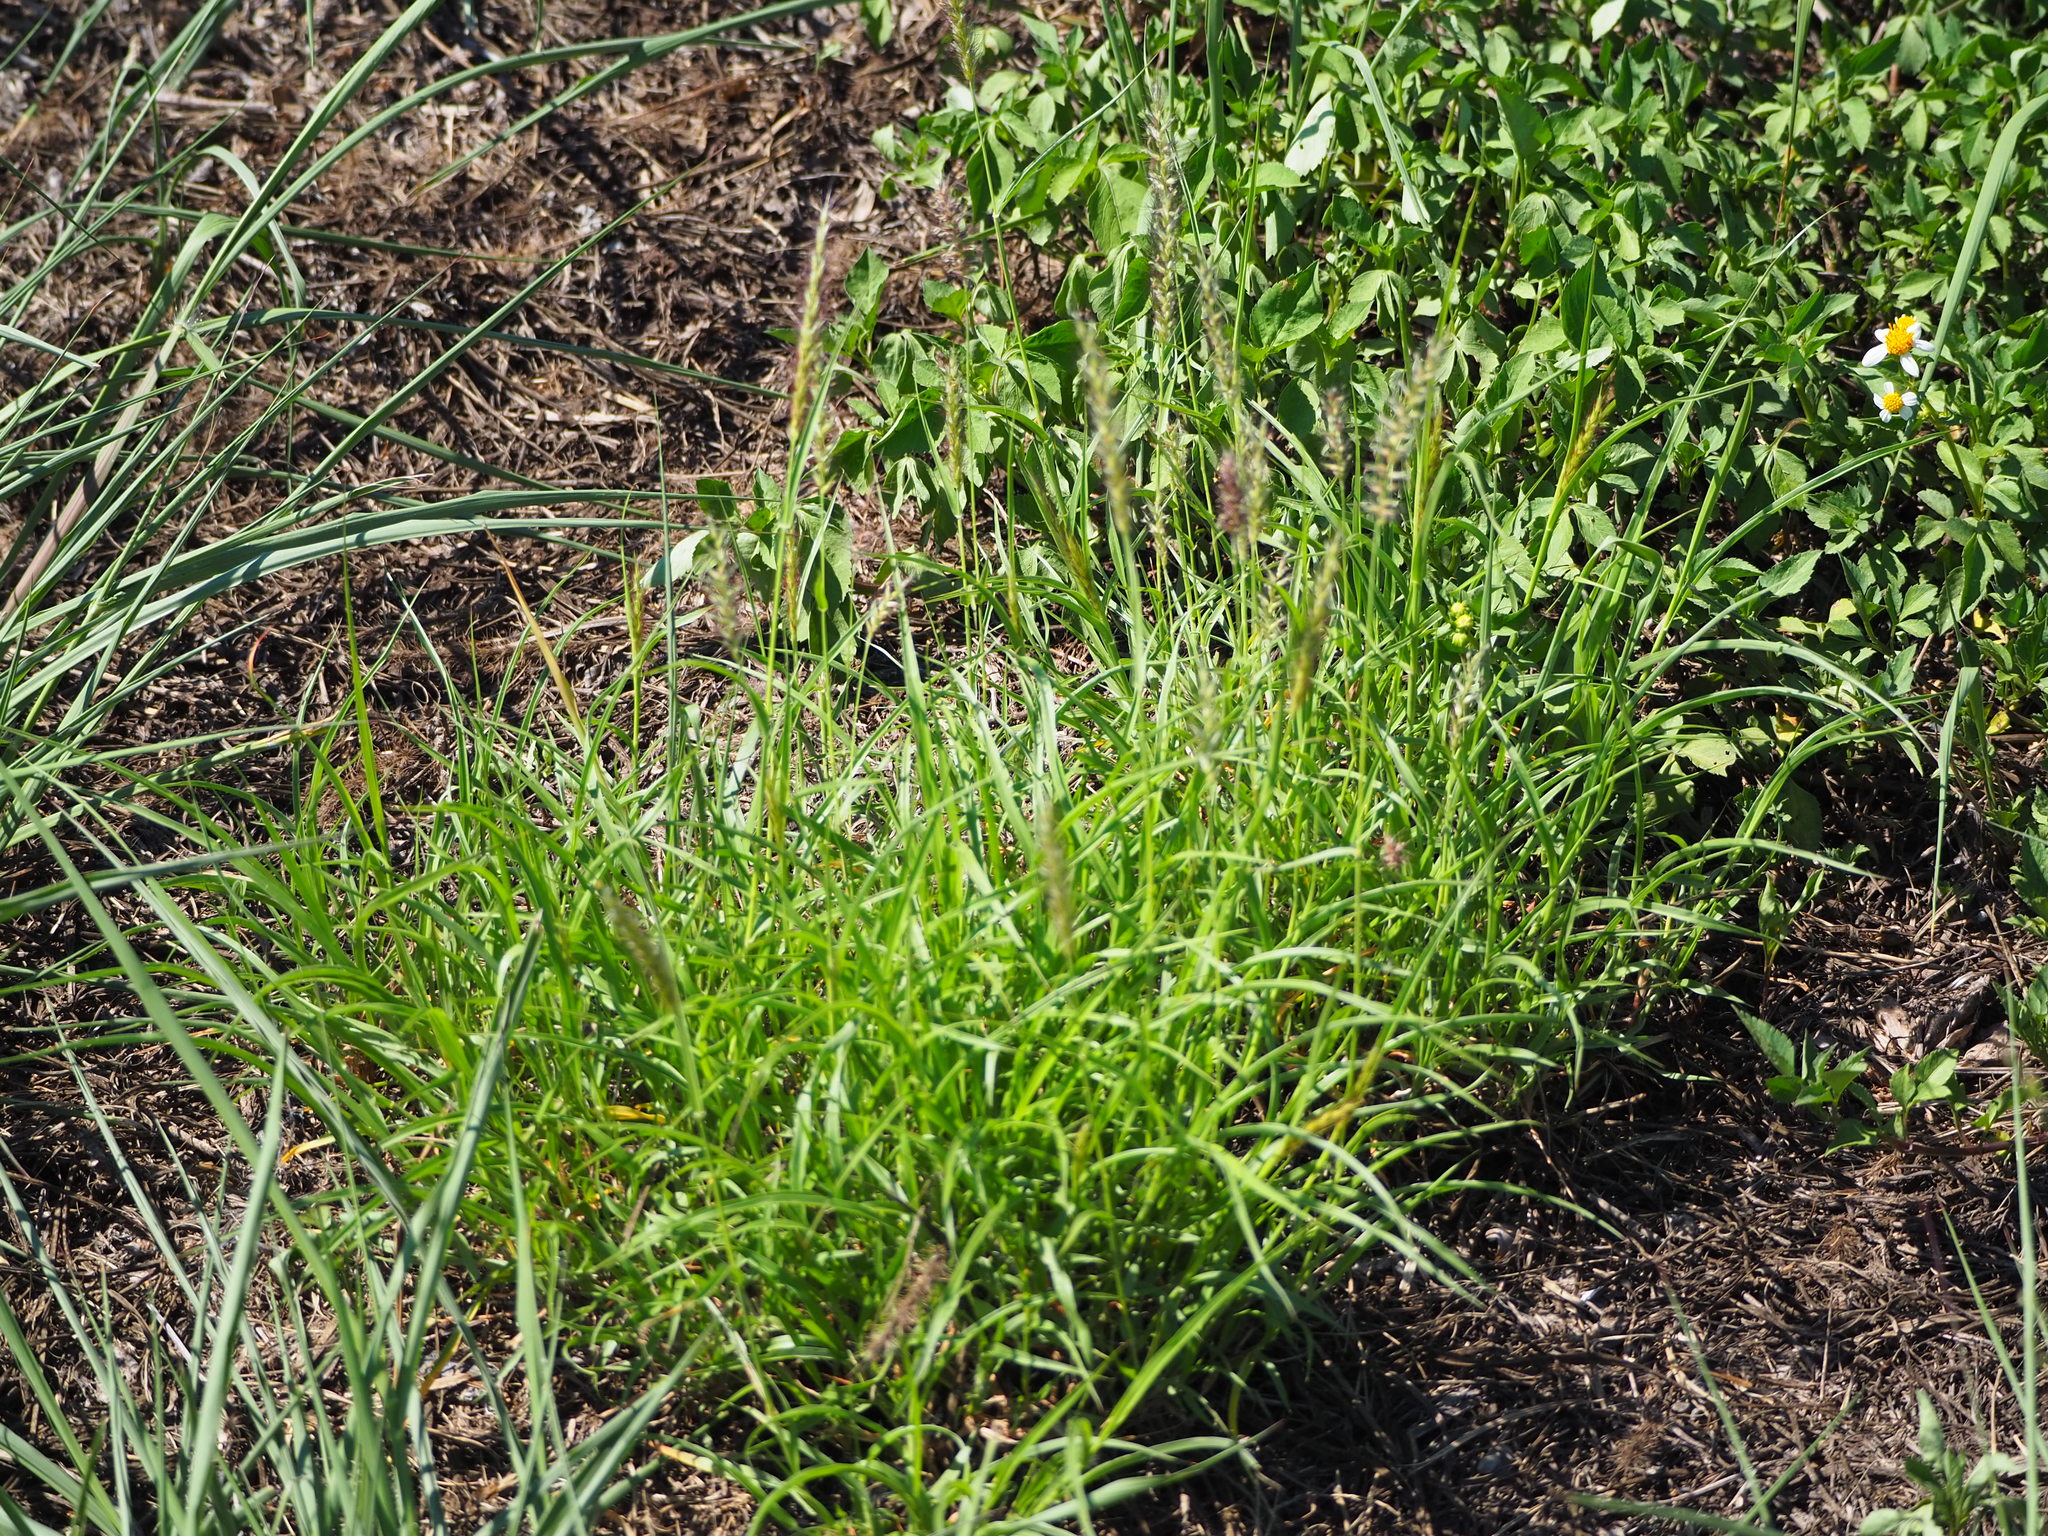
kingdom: Plantae
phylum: Tracheophyta
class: Liliopsida
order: Poales
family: Poaceae
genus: Cenchrus
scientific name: Cenchrus ciliaris
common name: Buffelgrass
